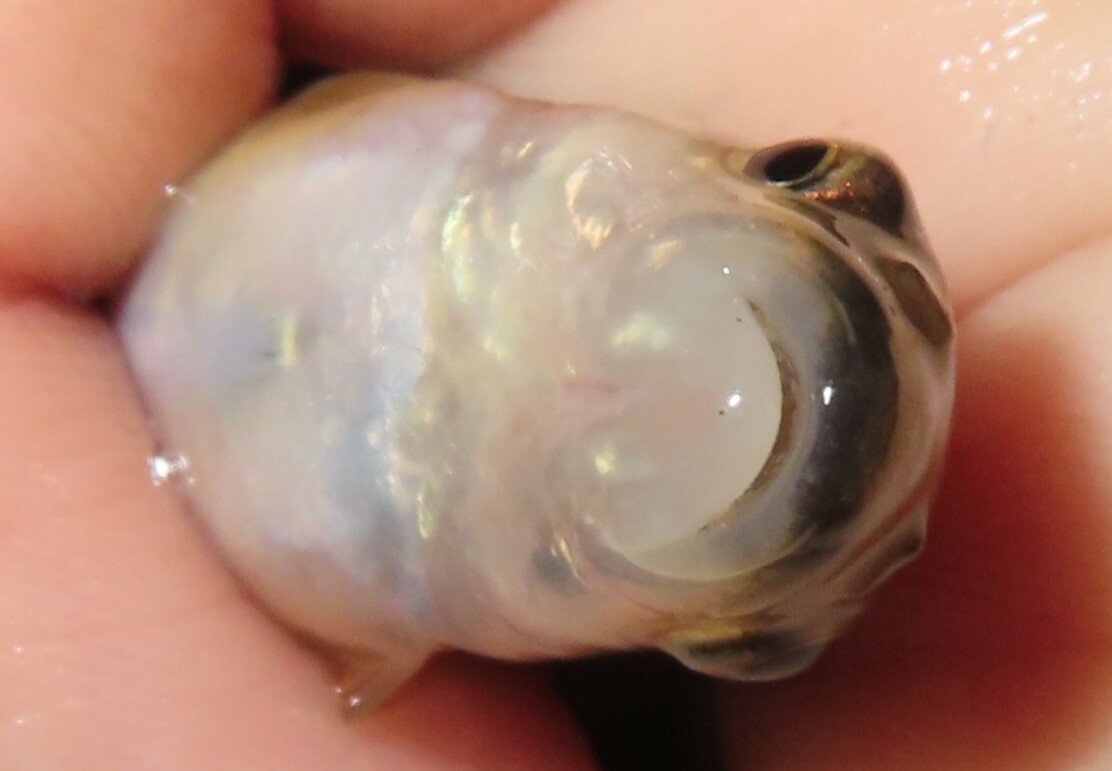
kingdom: Animalia
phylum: Chordata
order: Cypriniformes
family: Cyprinidae
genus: Rhinichthys
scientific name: Rhinichthys atratulus
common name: Eastern blacknose dace
